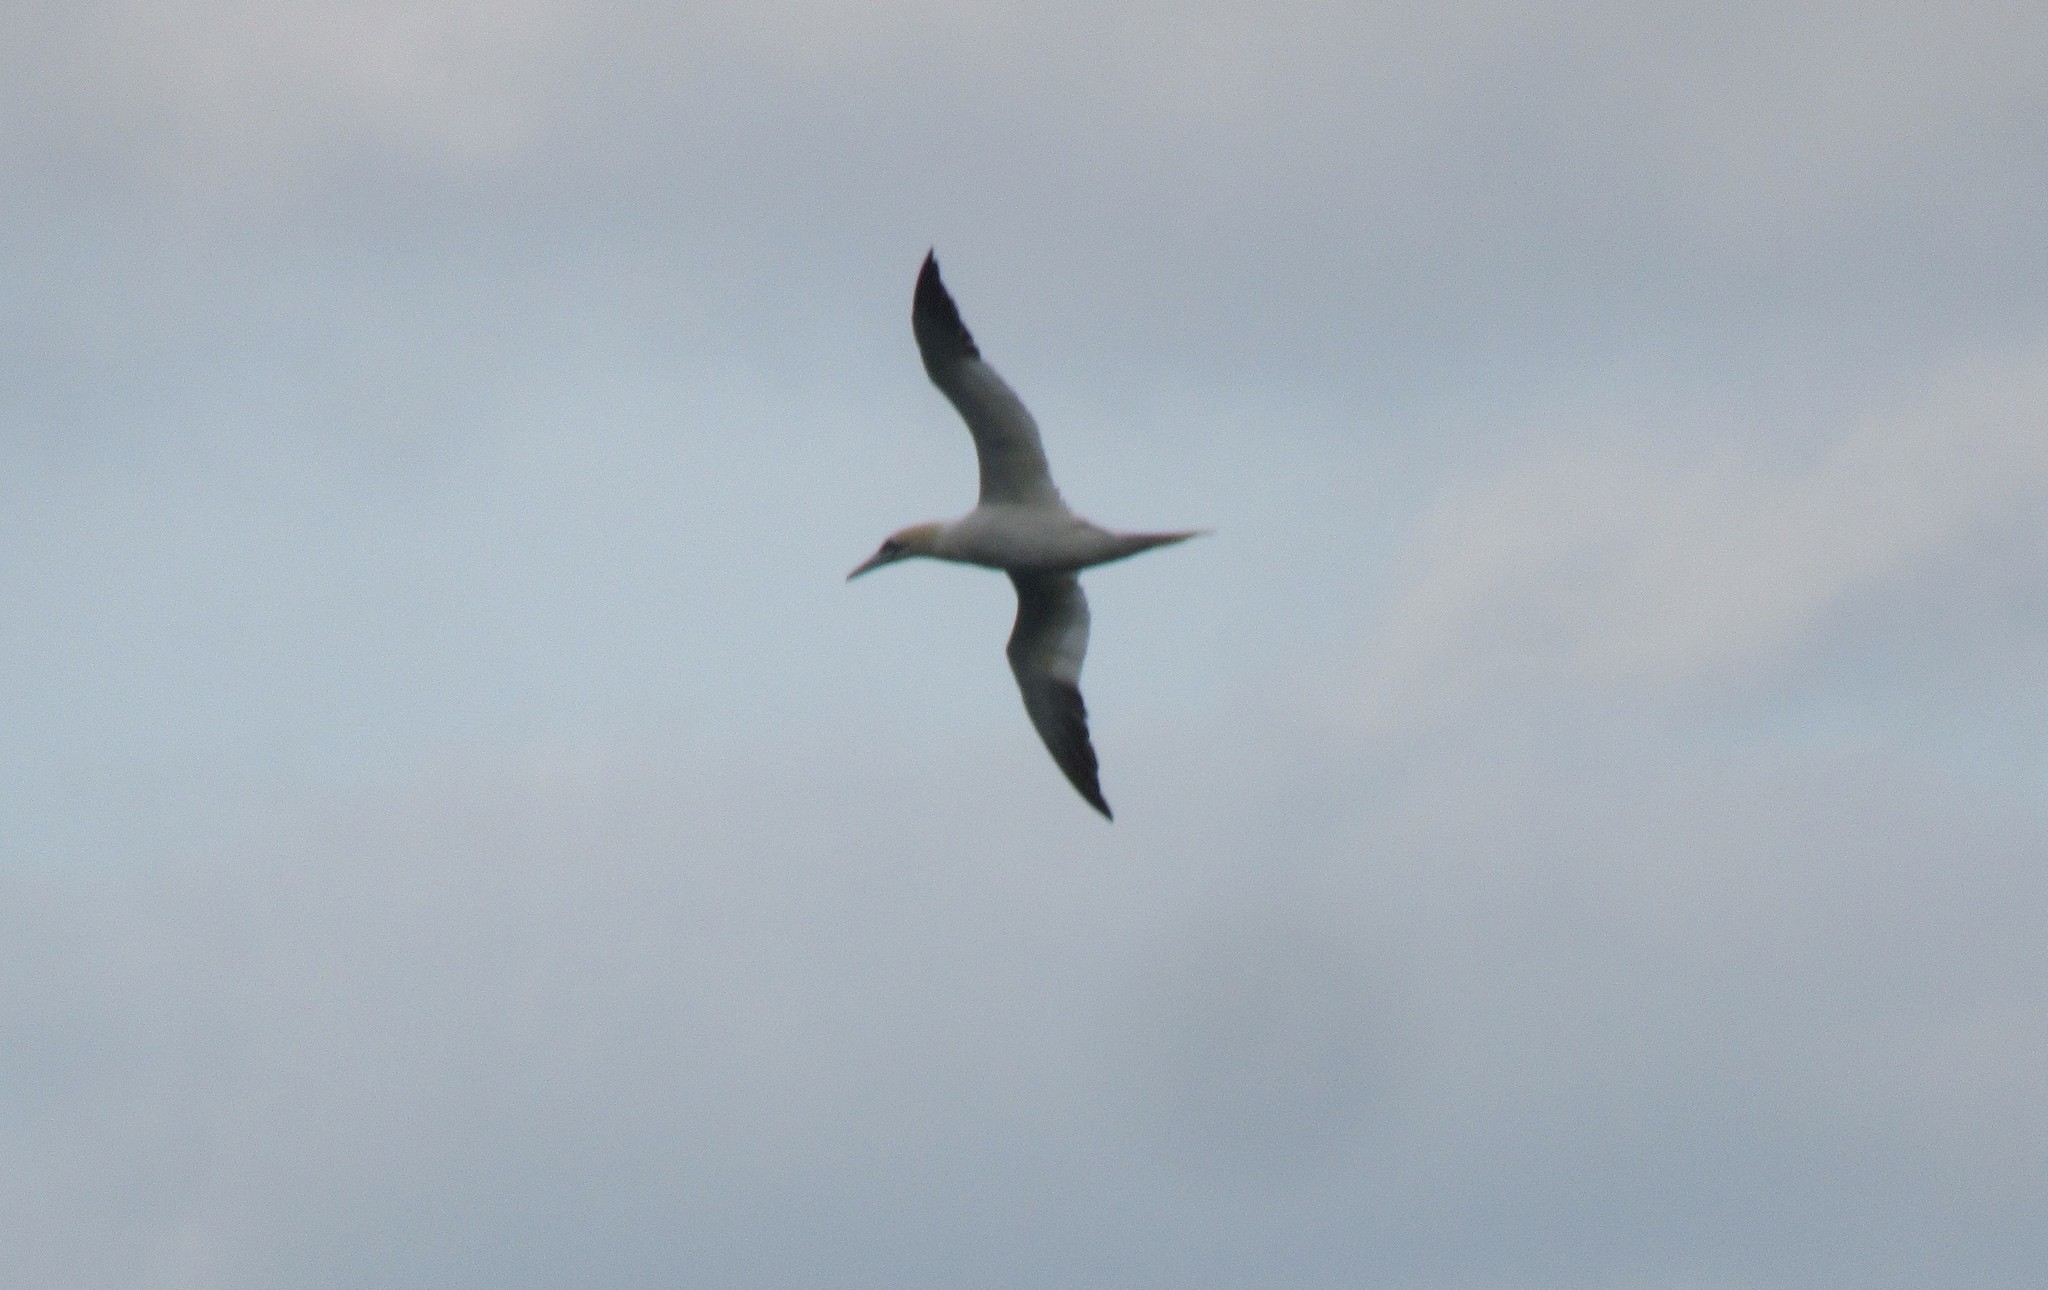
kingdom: Animalia
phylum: Chordata
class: Aves
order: Suliformes
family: Sulidae
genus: Morus
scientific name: Morus bassanus
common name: Northern gannet
